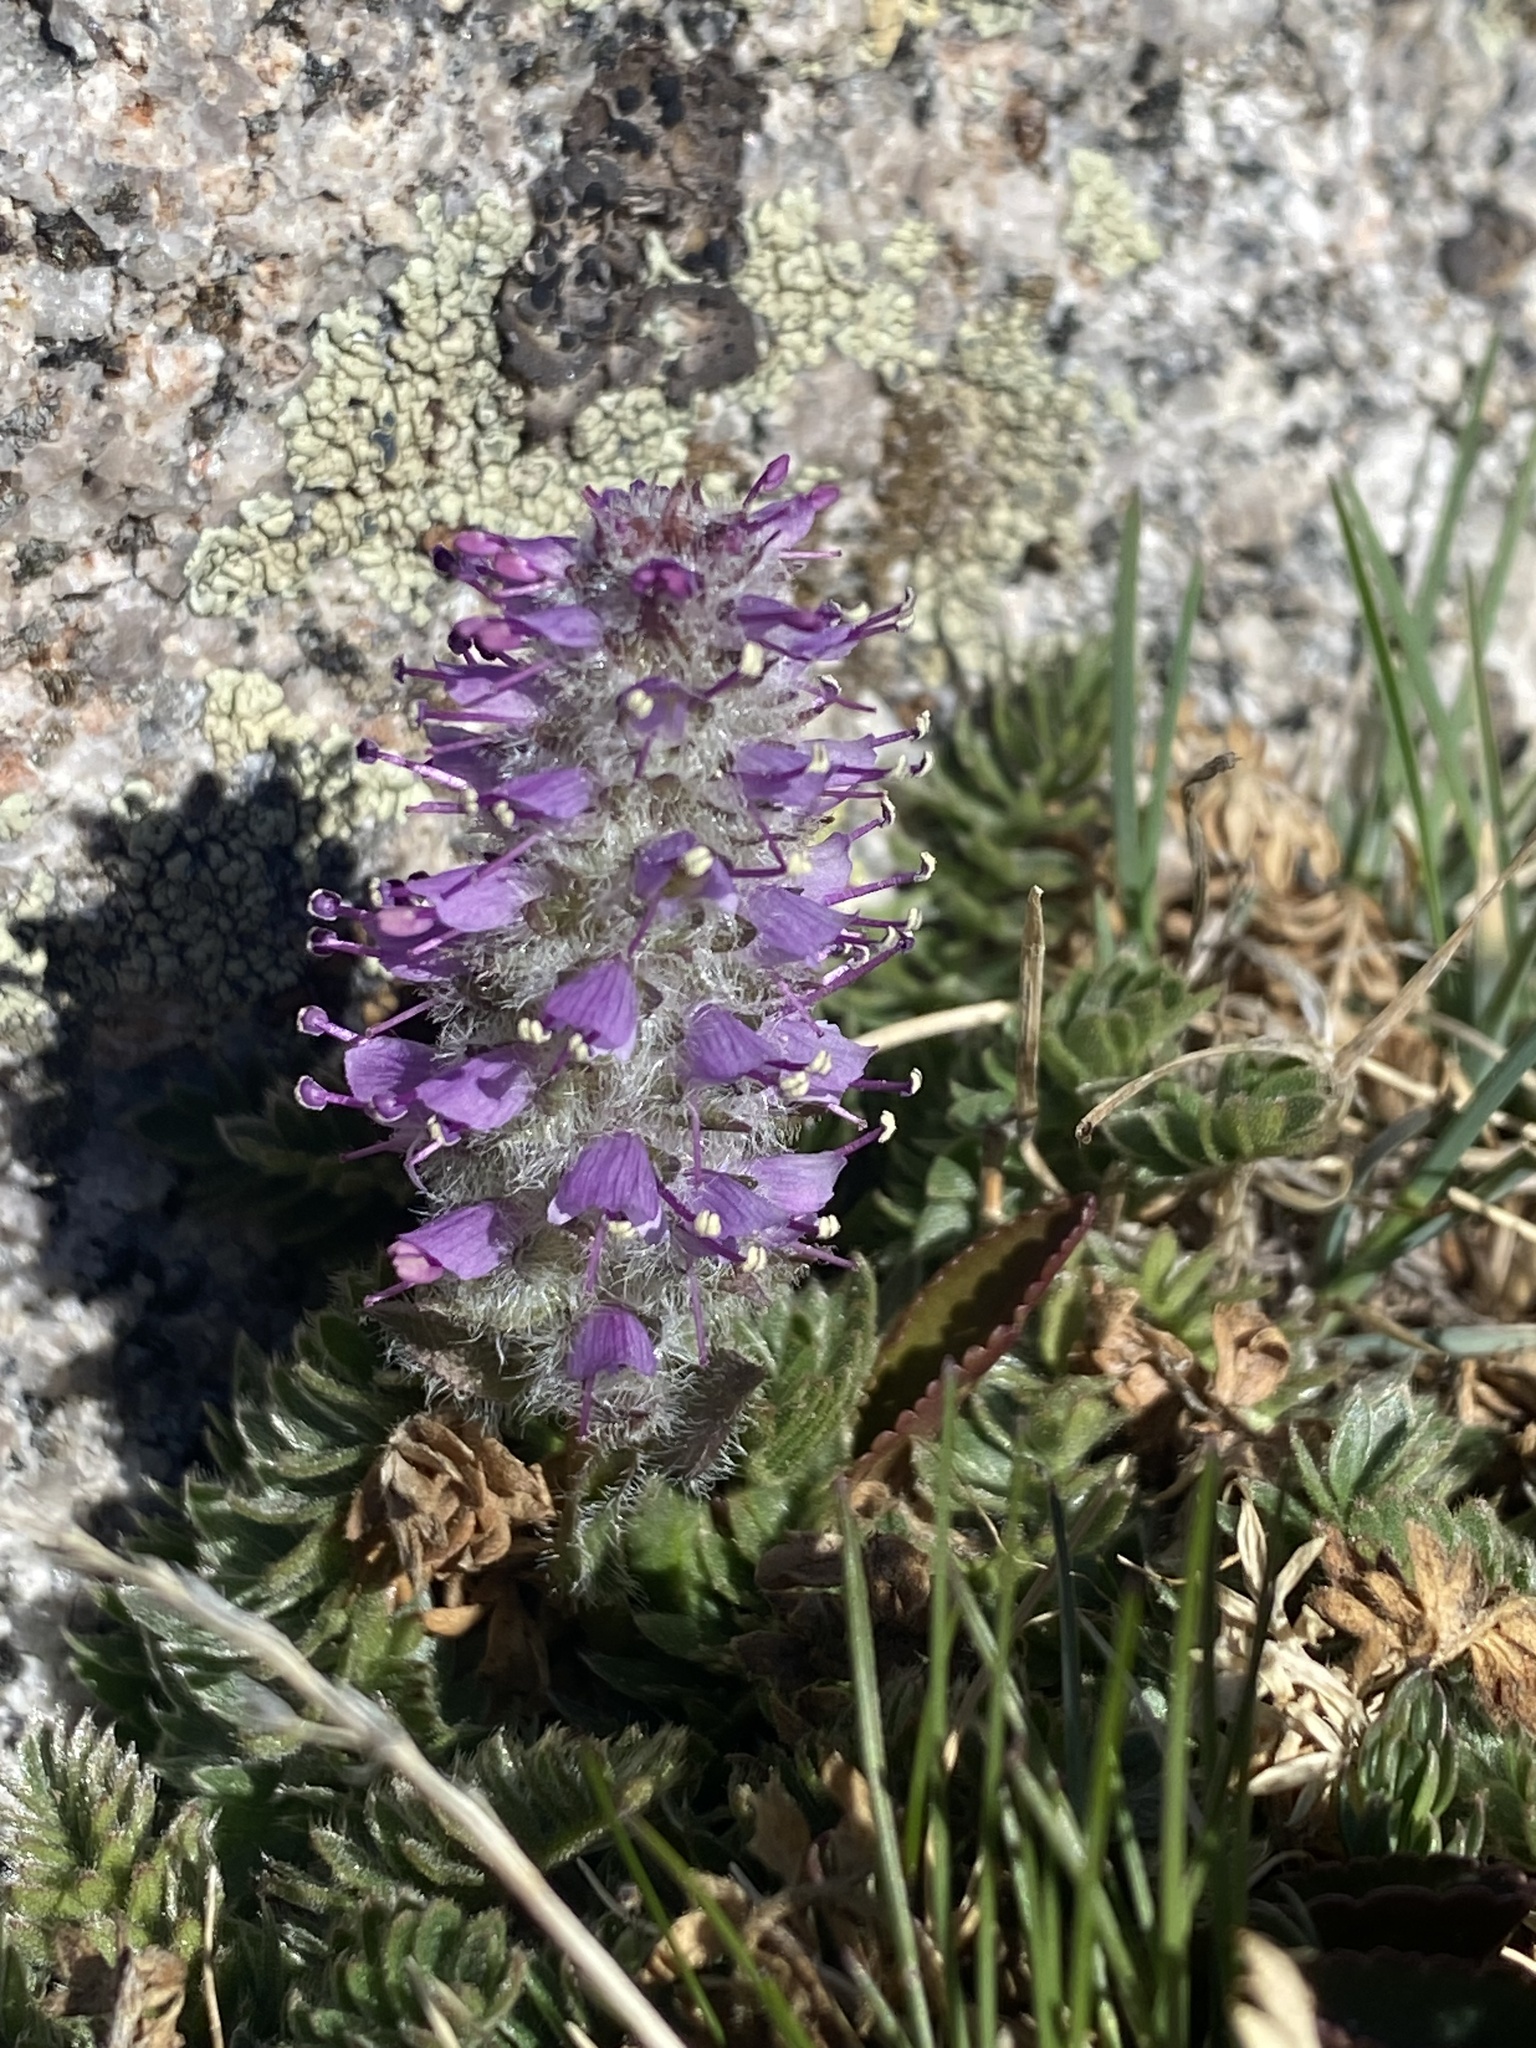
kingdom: Plantae
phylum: Tracheophyta
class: Magnoliopsida
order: Lamiales
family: Plantaginaceae
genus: Synthyris
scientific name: Synthyris alpina
